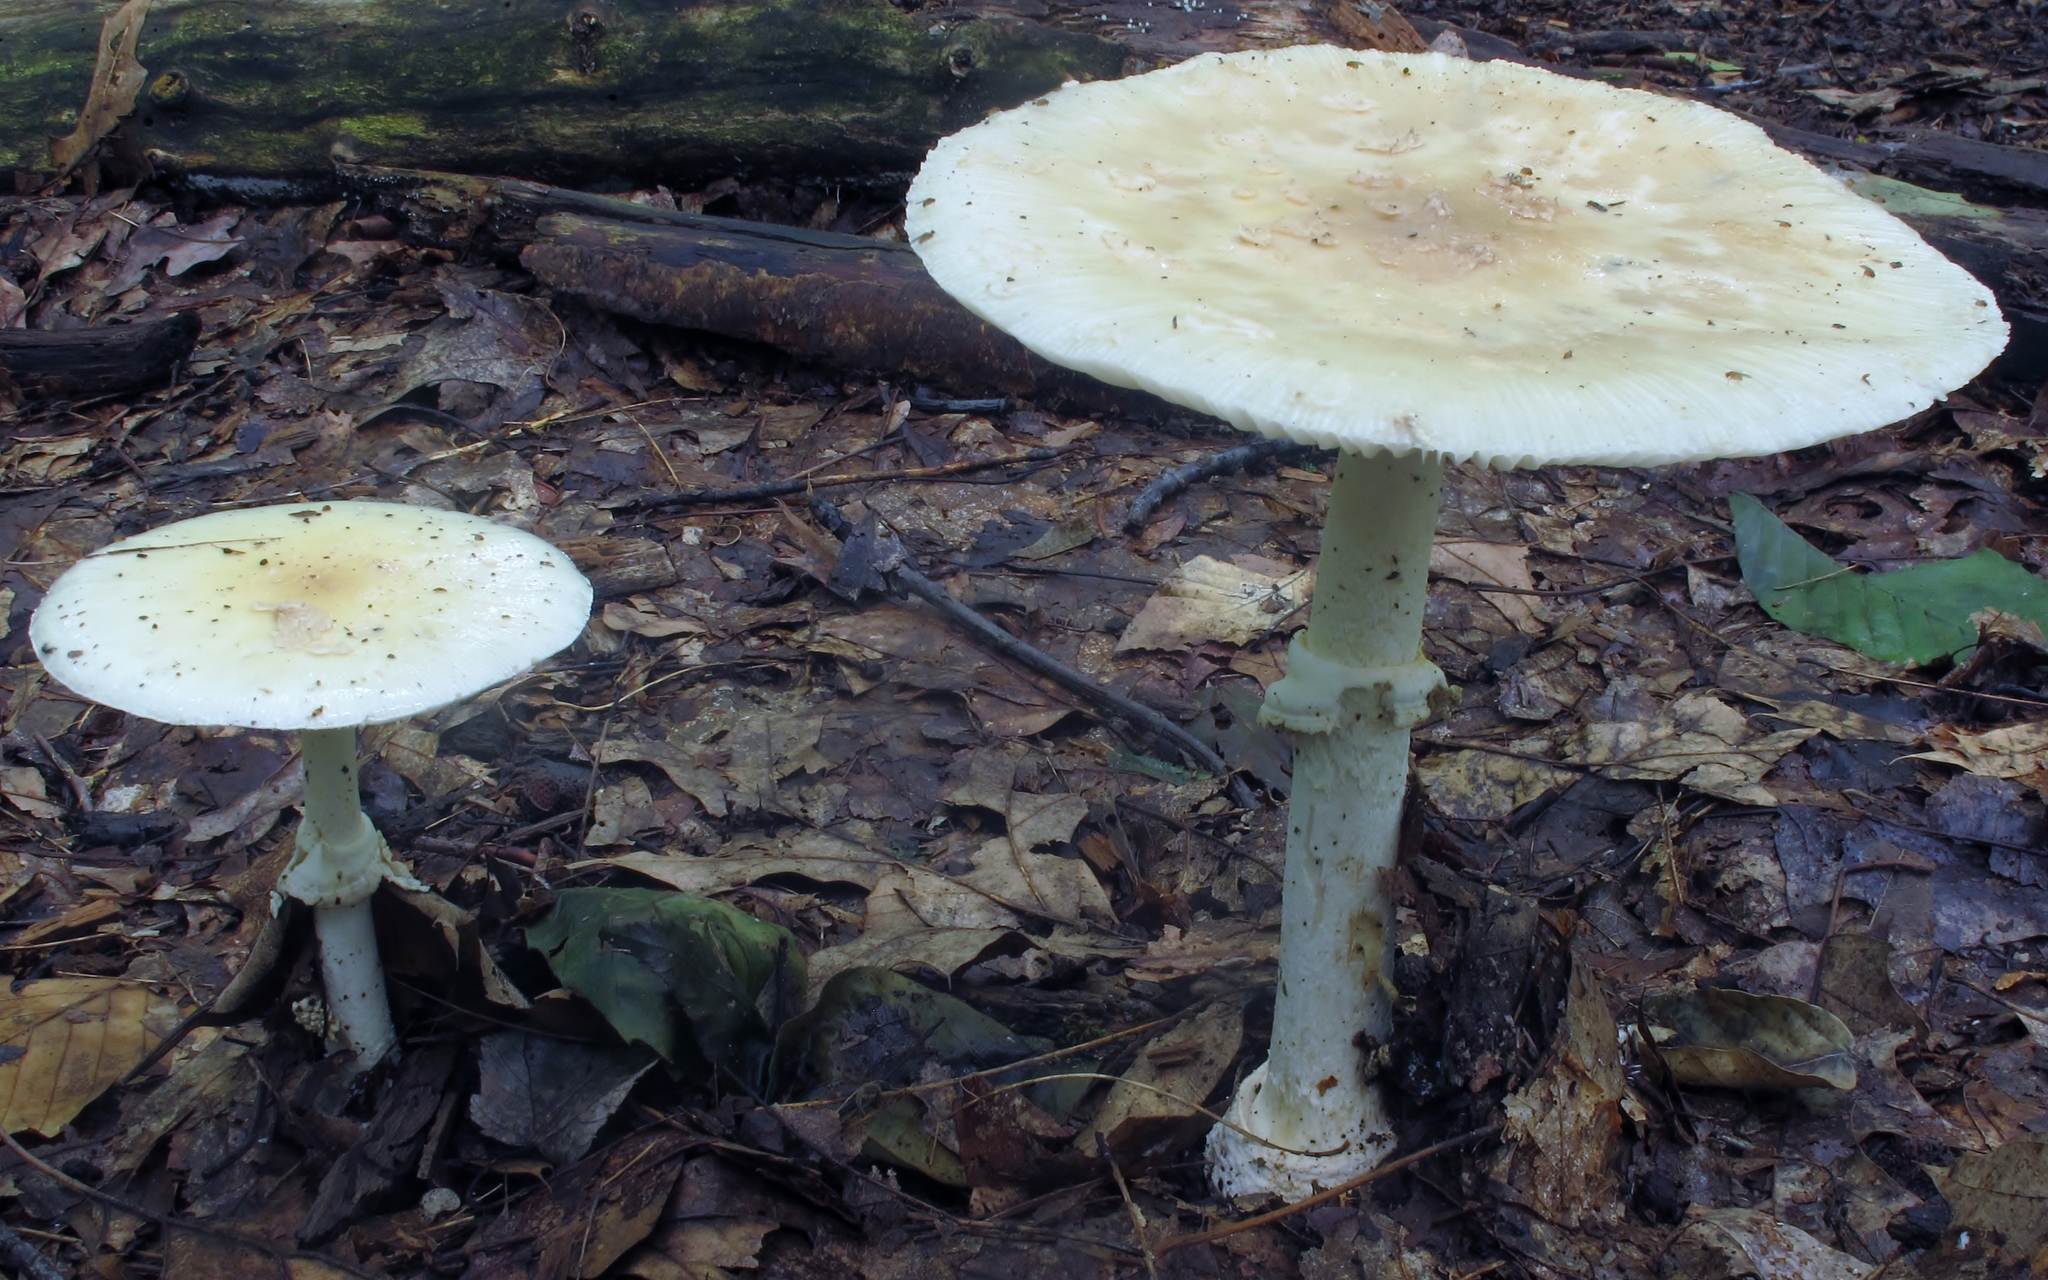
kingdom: Fungi
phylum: Basidiomycota
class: Agaricomycetes
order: Agaricales
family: Amanitaceae
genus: Amanita
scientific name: Amanita velatipes
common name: Great funnel-veil amanita
